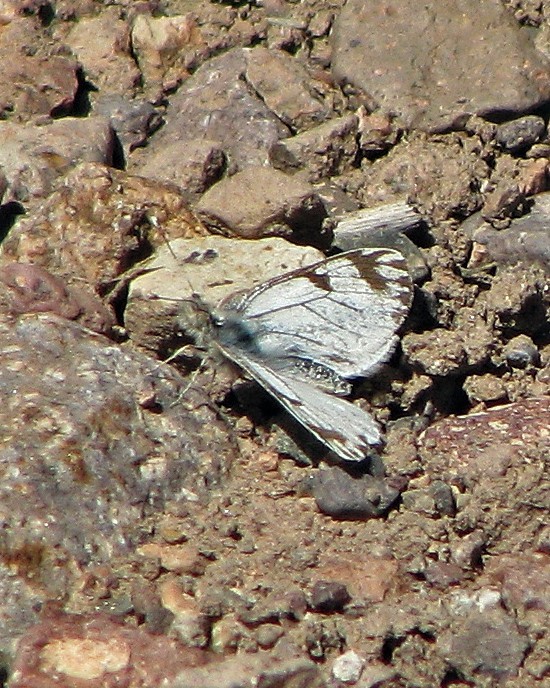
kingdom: Animalia
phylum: Arthropoda
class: Insecta
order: Lepidoptera
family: Pieridae
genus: Phulia
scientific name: Phulia nymphula
